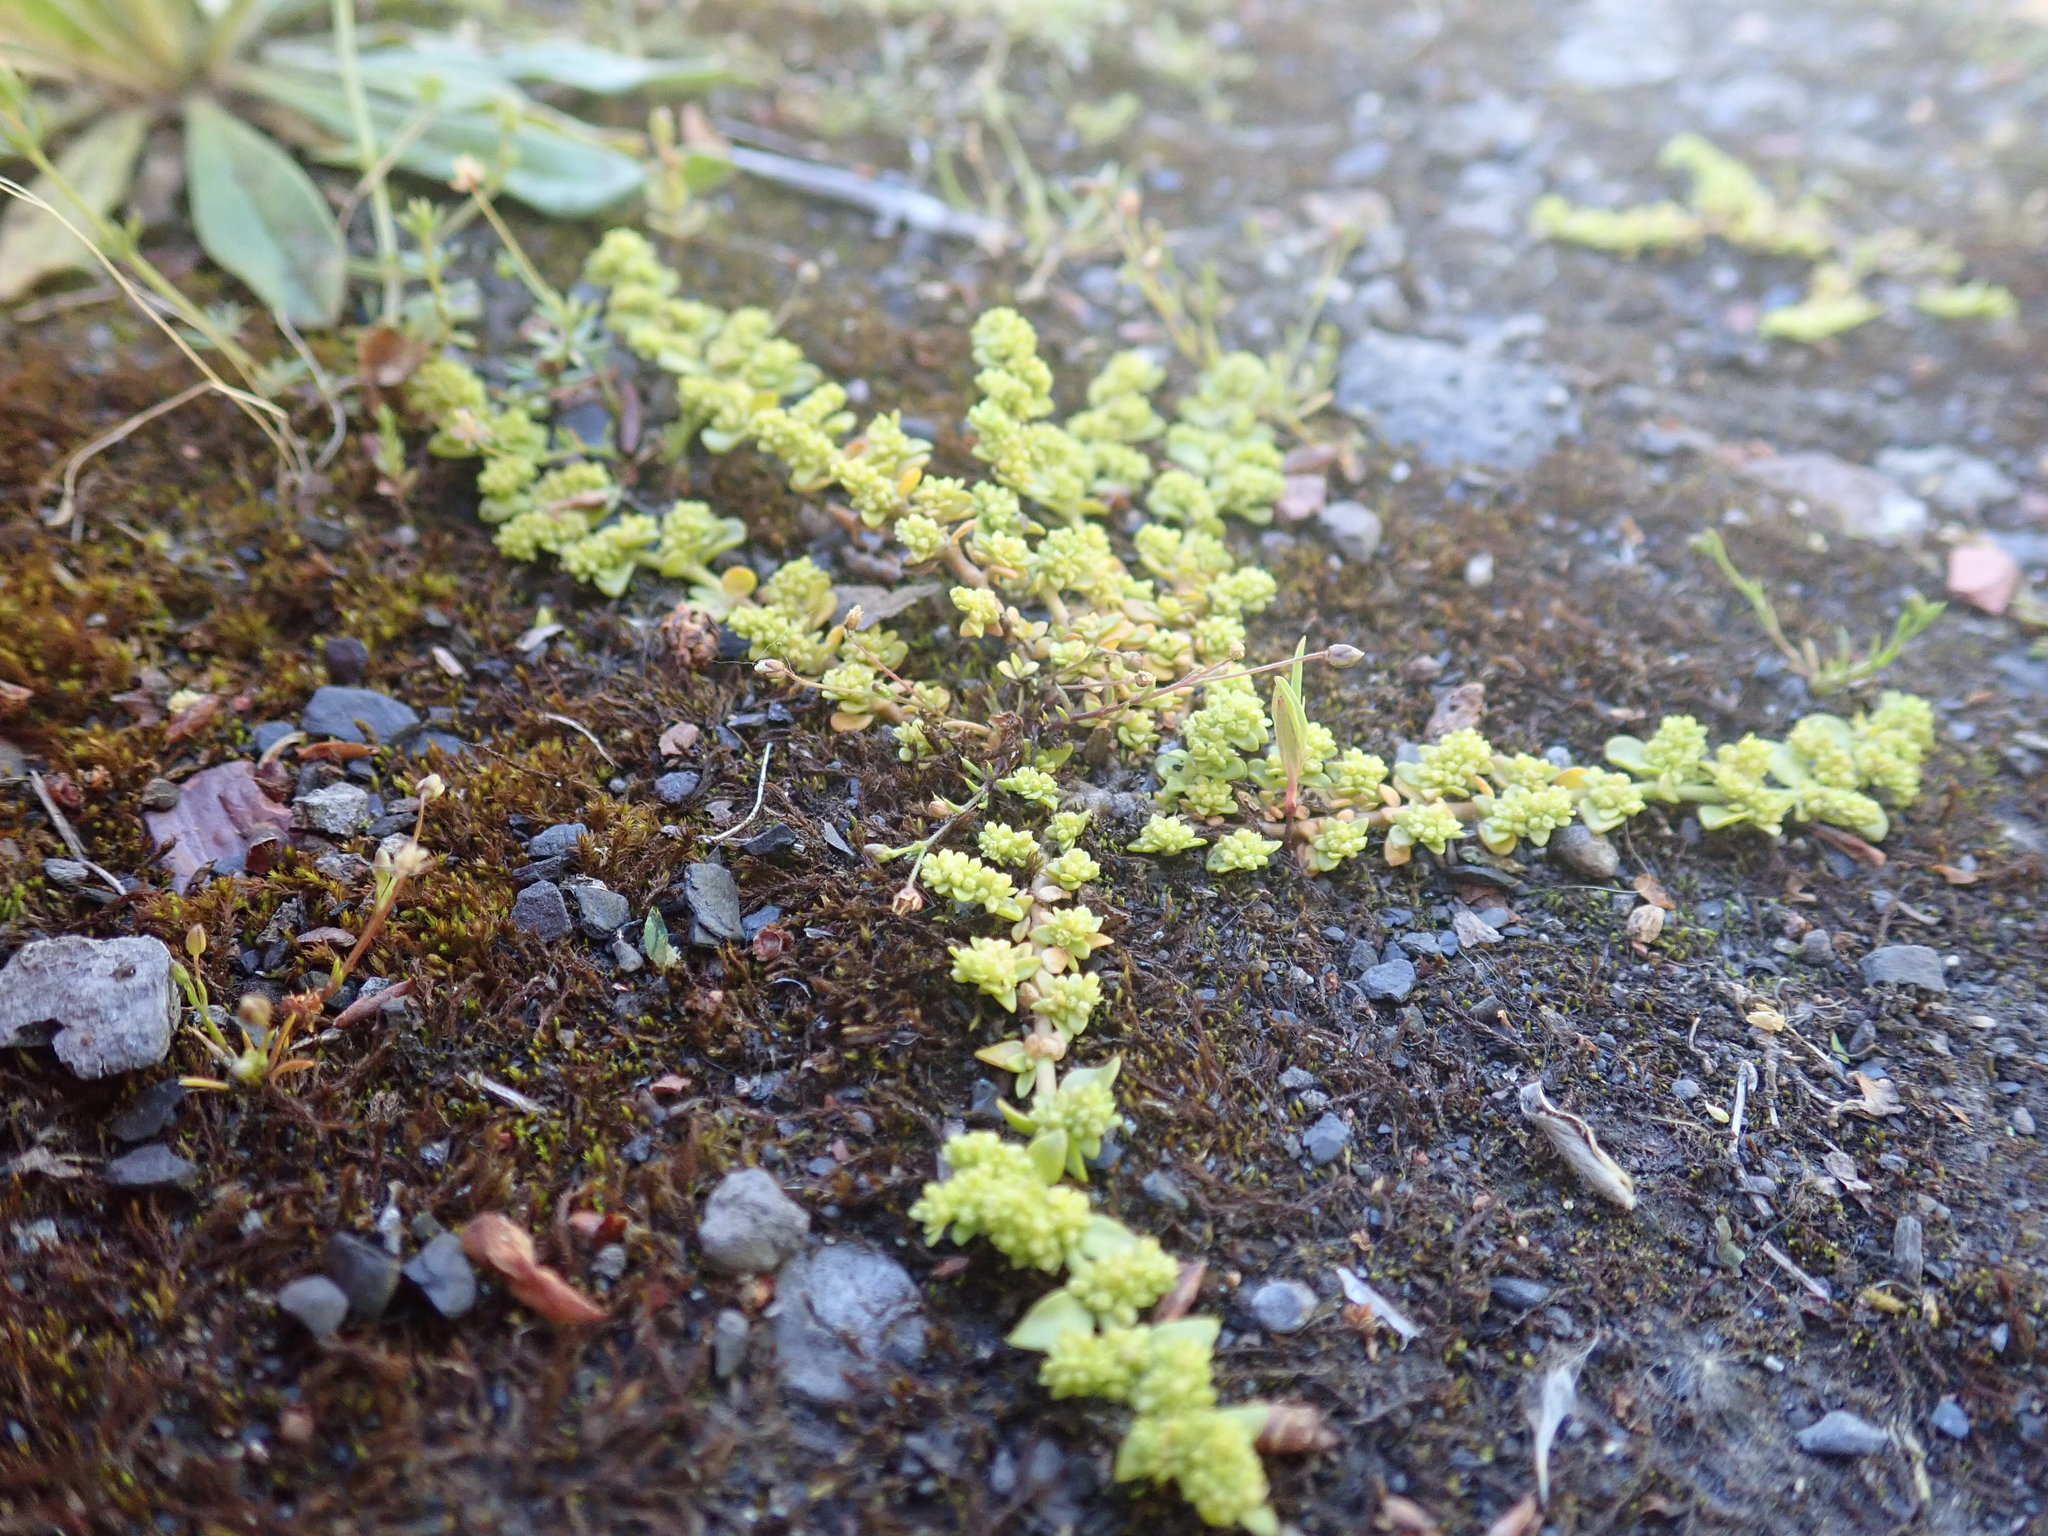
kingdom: Plantae
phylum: Tracheophyta
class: Magnoliopsida
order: Caryophyllales
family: Caryophyllaceae
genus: Herniaria
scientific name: Herniaria glabra
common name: Smooth rupturewort
